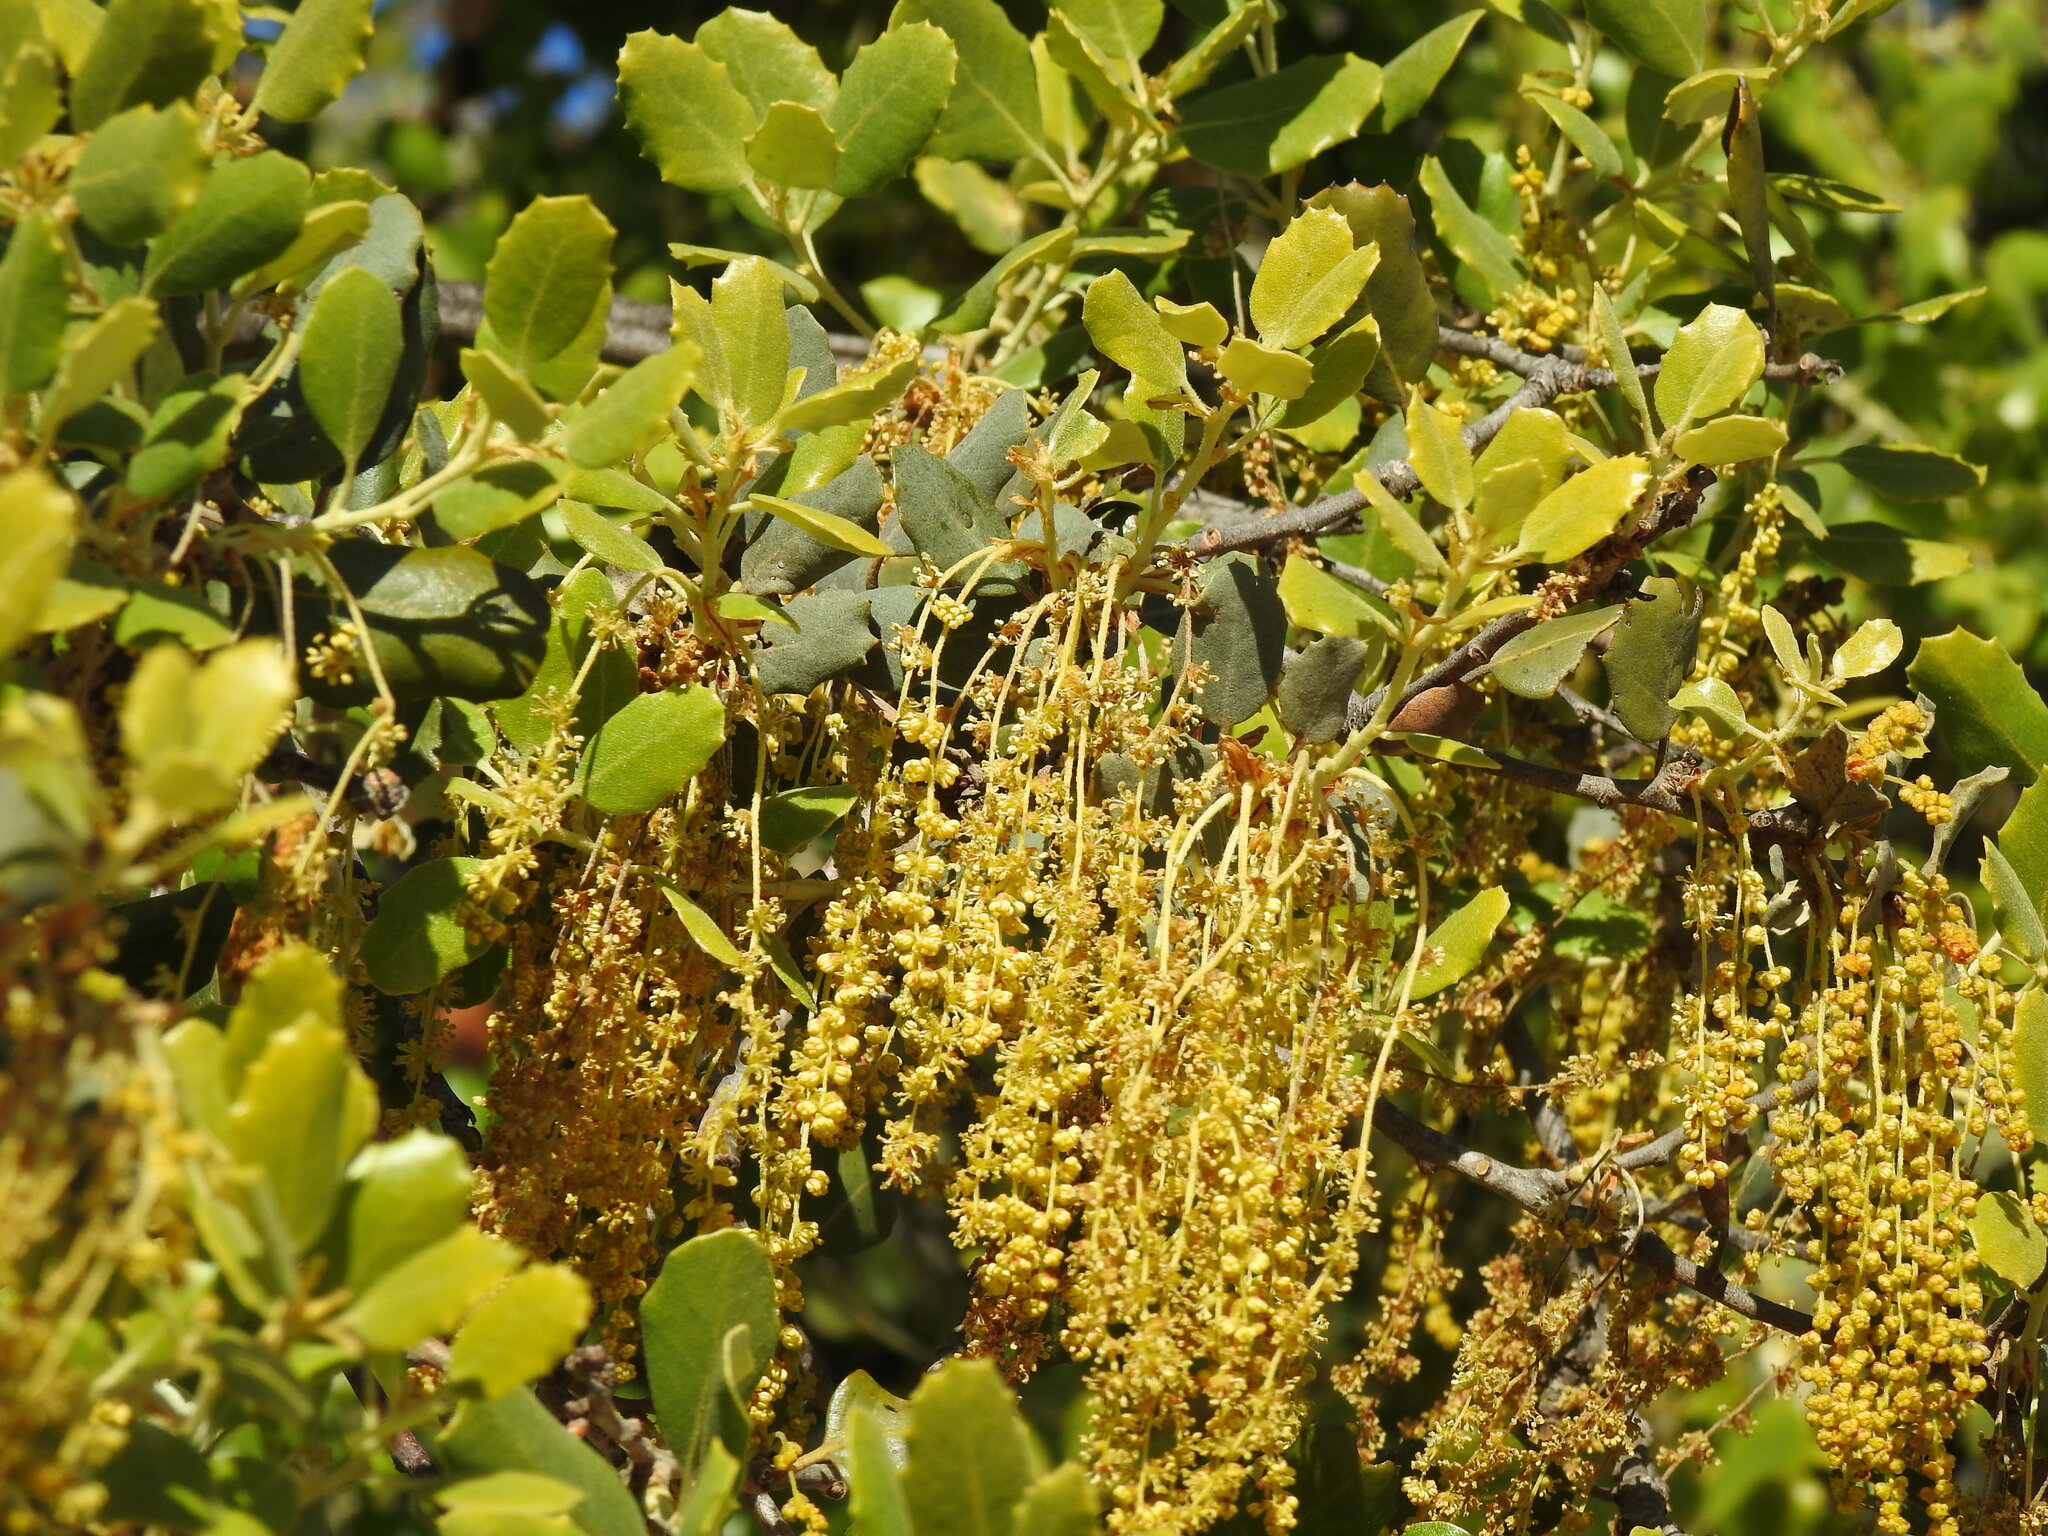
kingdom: Plantae
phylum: Tracheophyta
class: Magnoliopsida
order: Fagales
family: Fagaceae
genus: Quercus
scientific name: Quercus rotundifolia
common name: Holm oak
